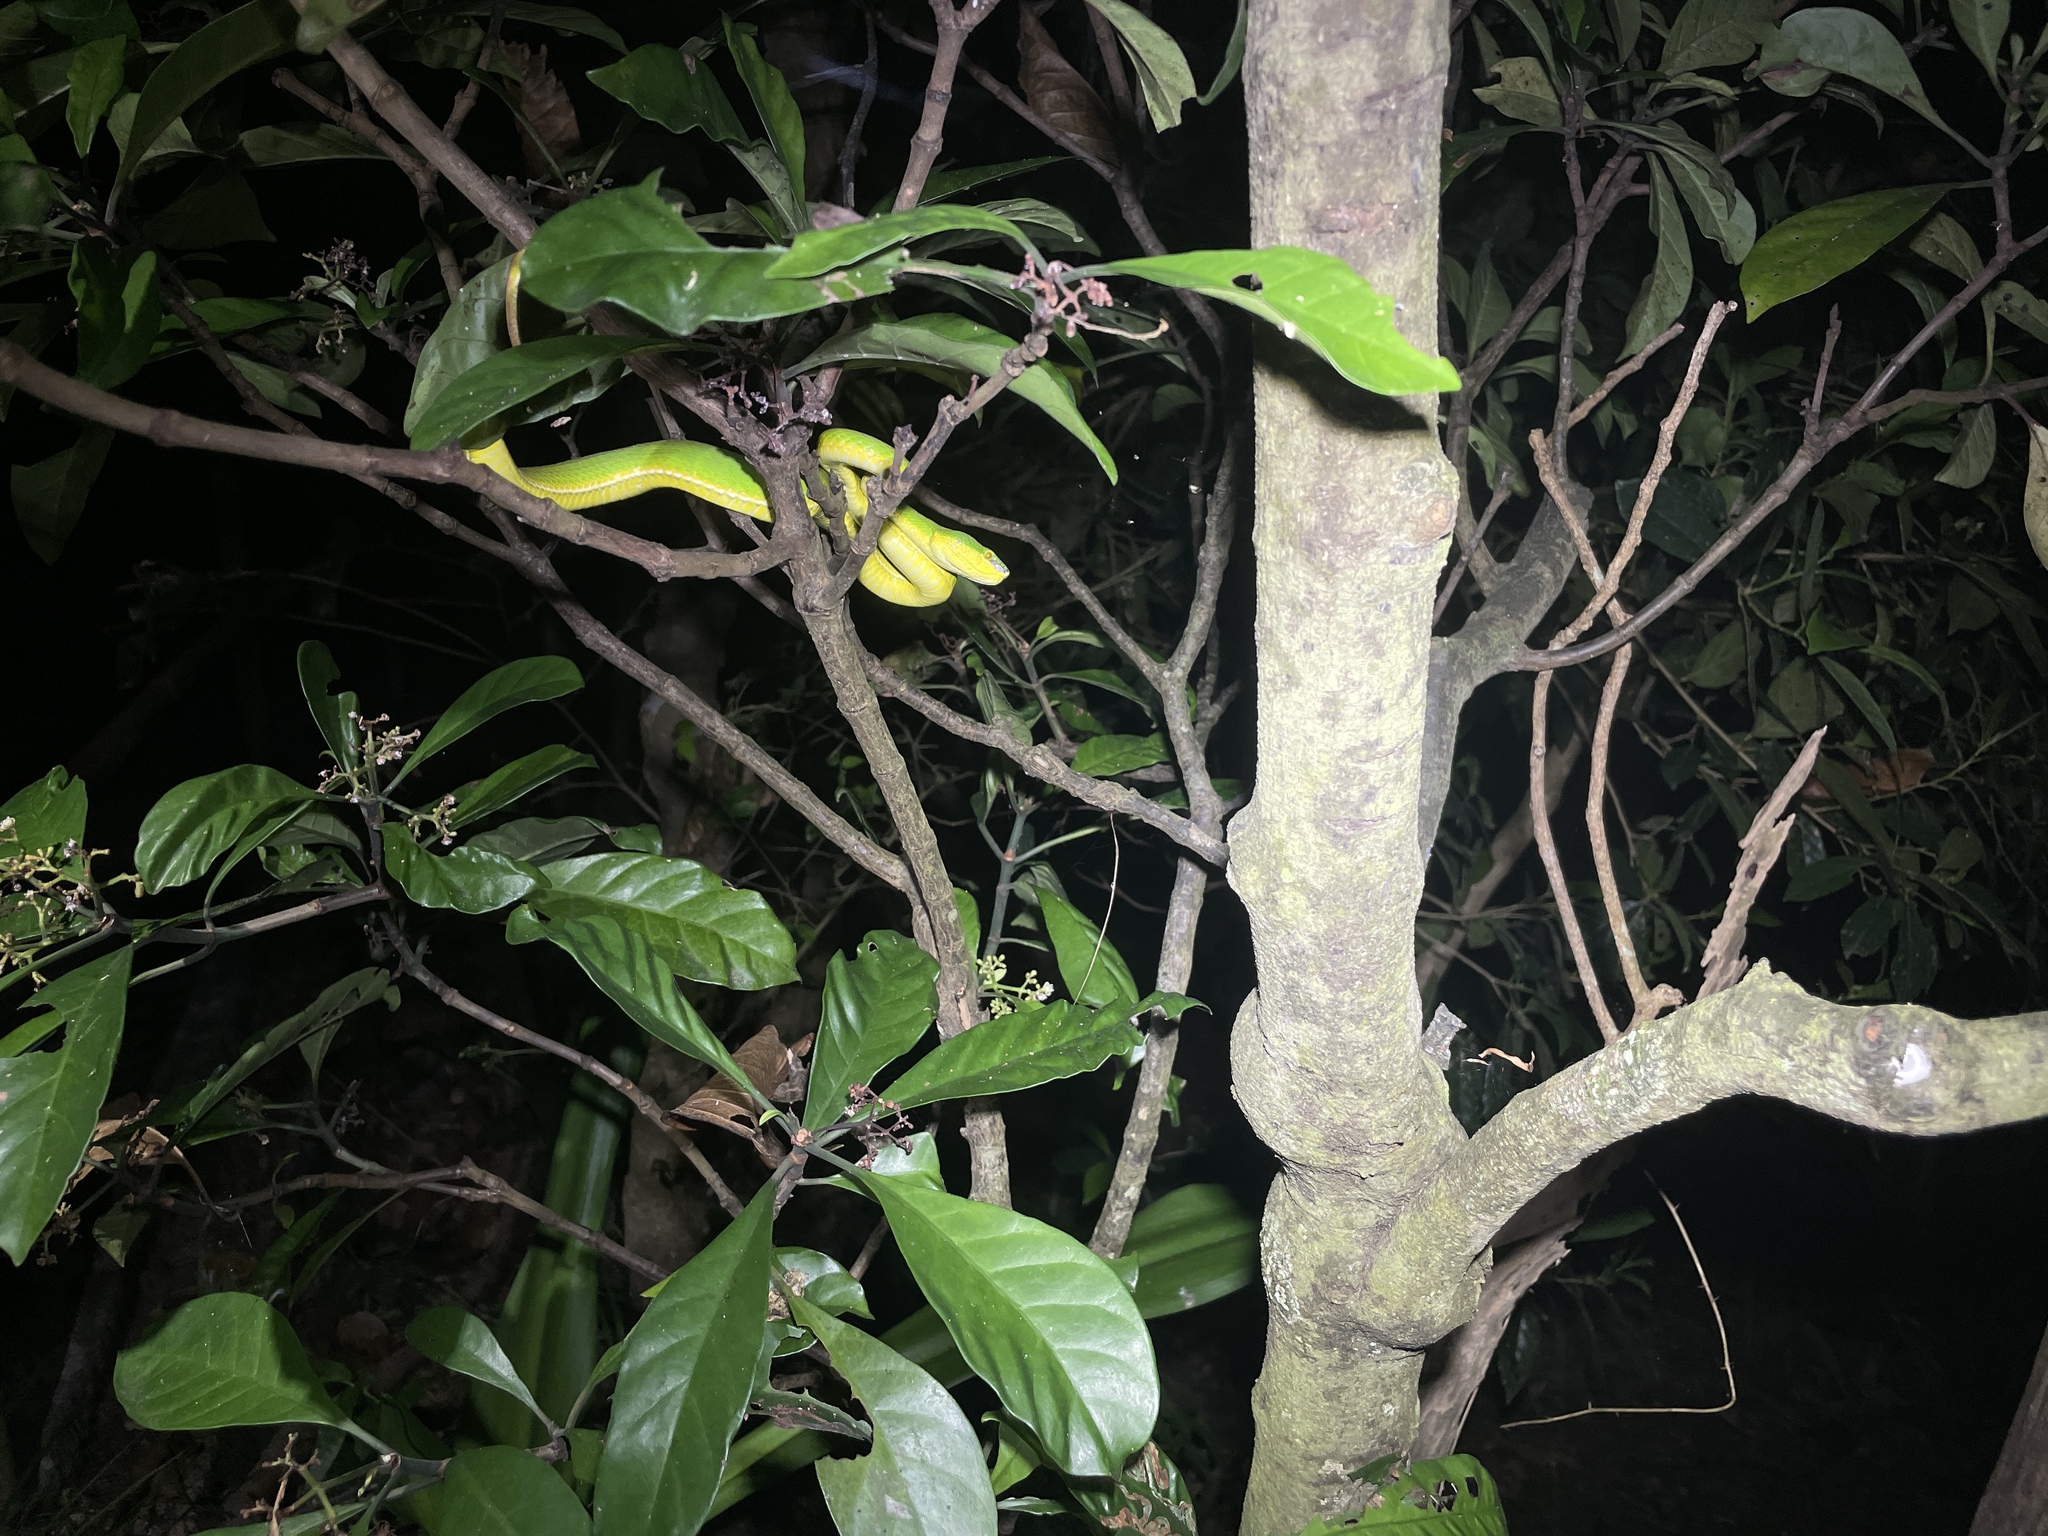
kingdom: Animalia
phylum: Chordata
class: Squamata
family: Viperidae
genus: Trimeresurus
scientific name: Trimeresurus albolabris
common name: White-lipped pitviper
